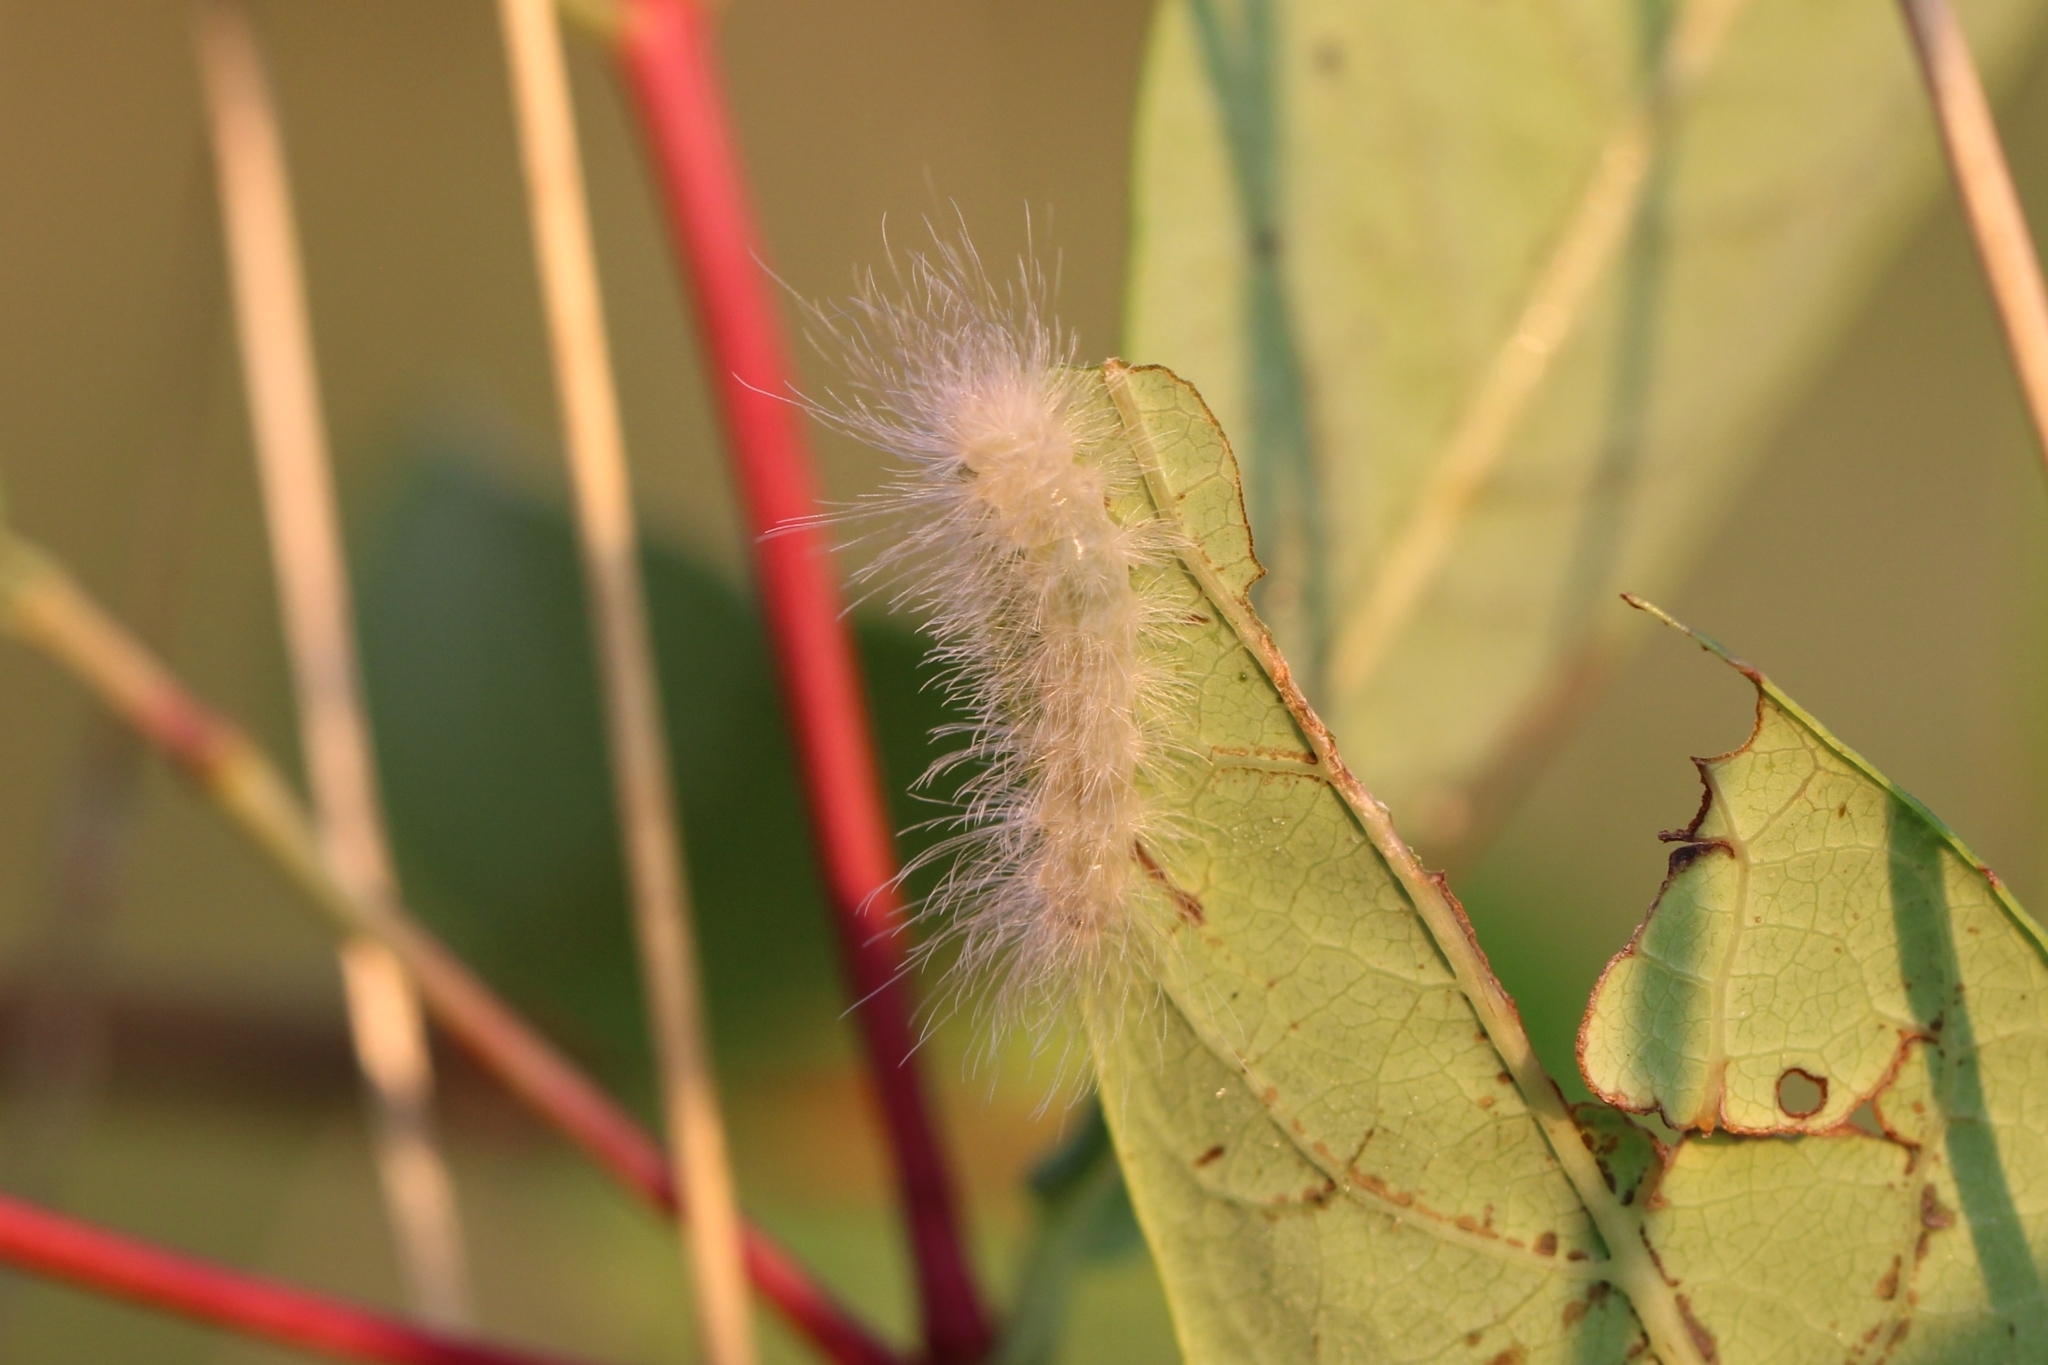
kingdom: Animalia
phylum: Arthropoda
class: Insecta
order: Lepidoptera
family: Erebidae
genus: Cycnia
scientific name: Cycnia tenera
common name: Delicate cycnia moth
